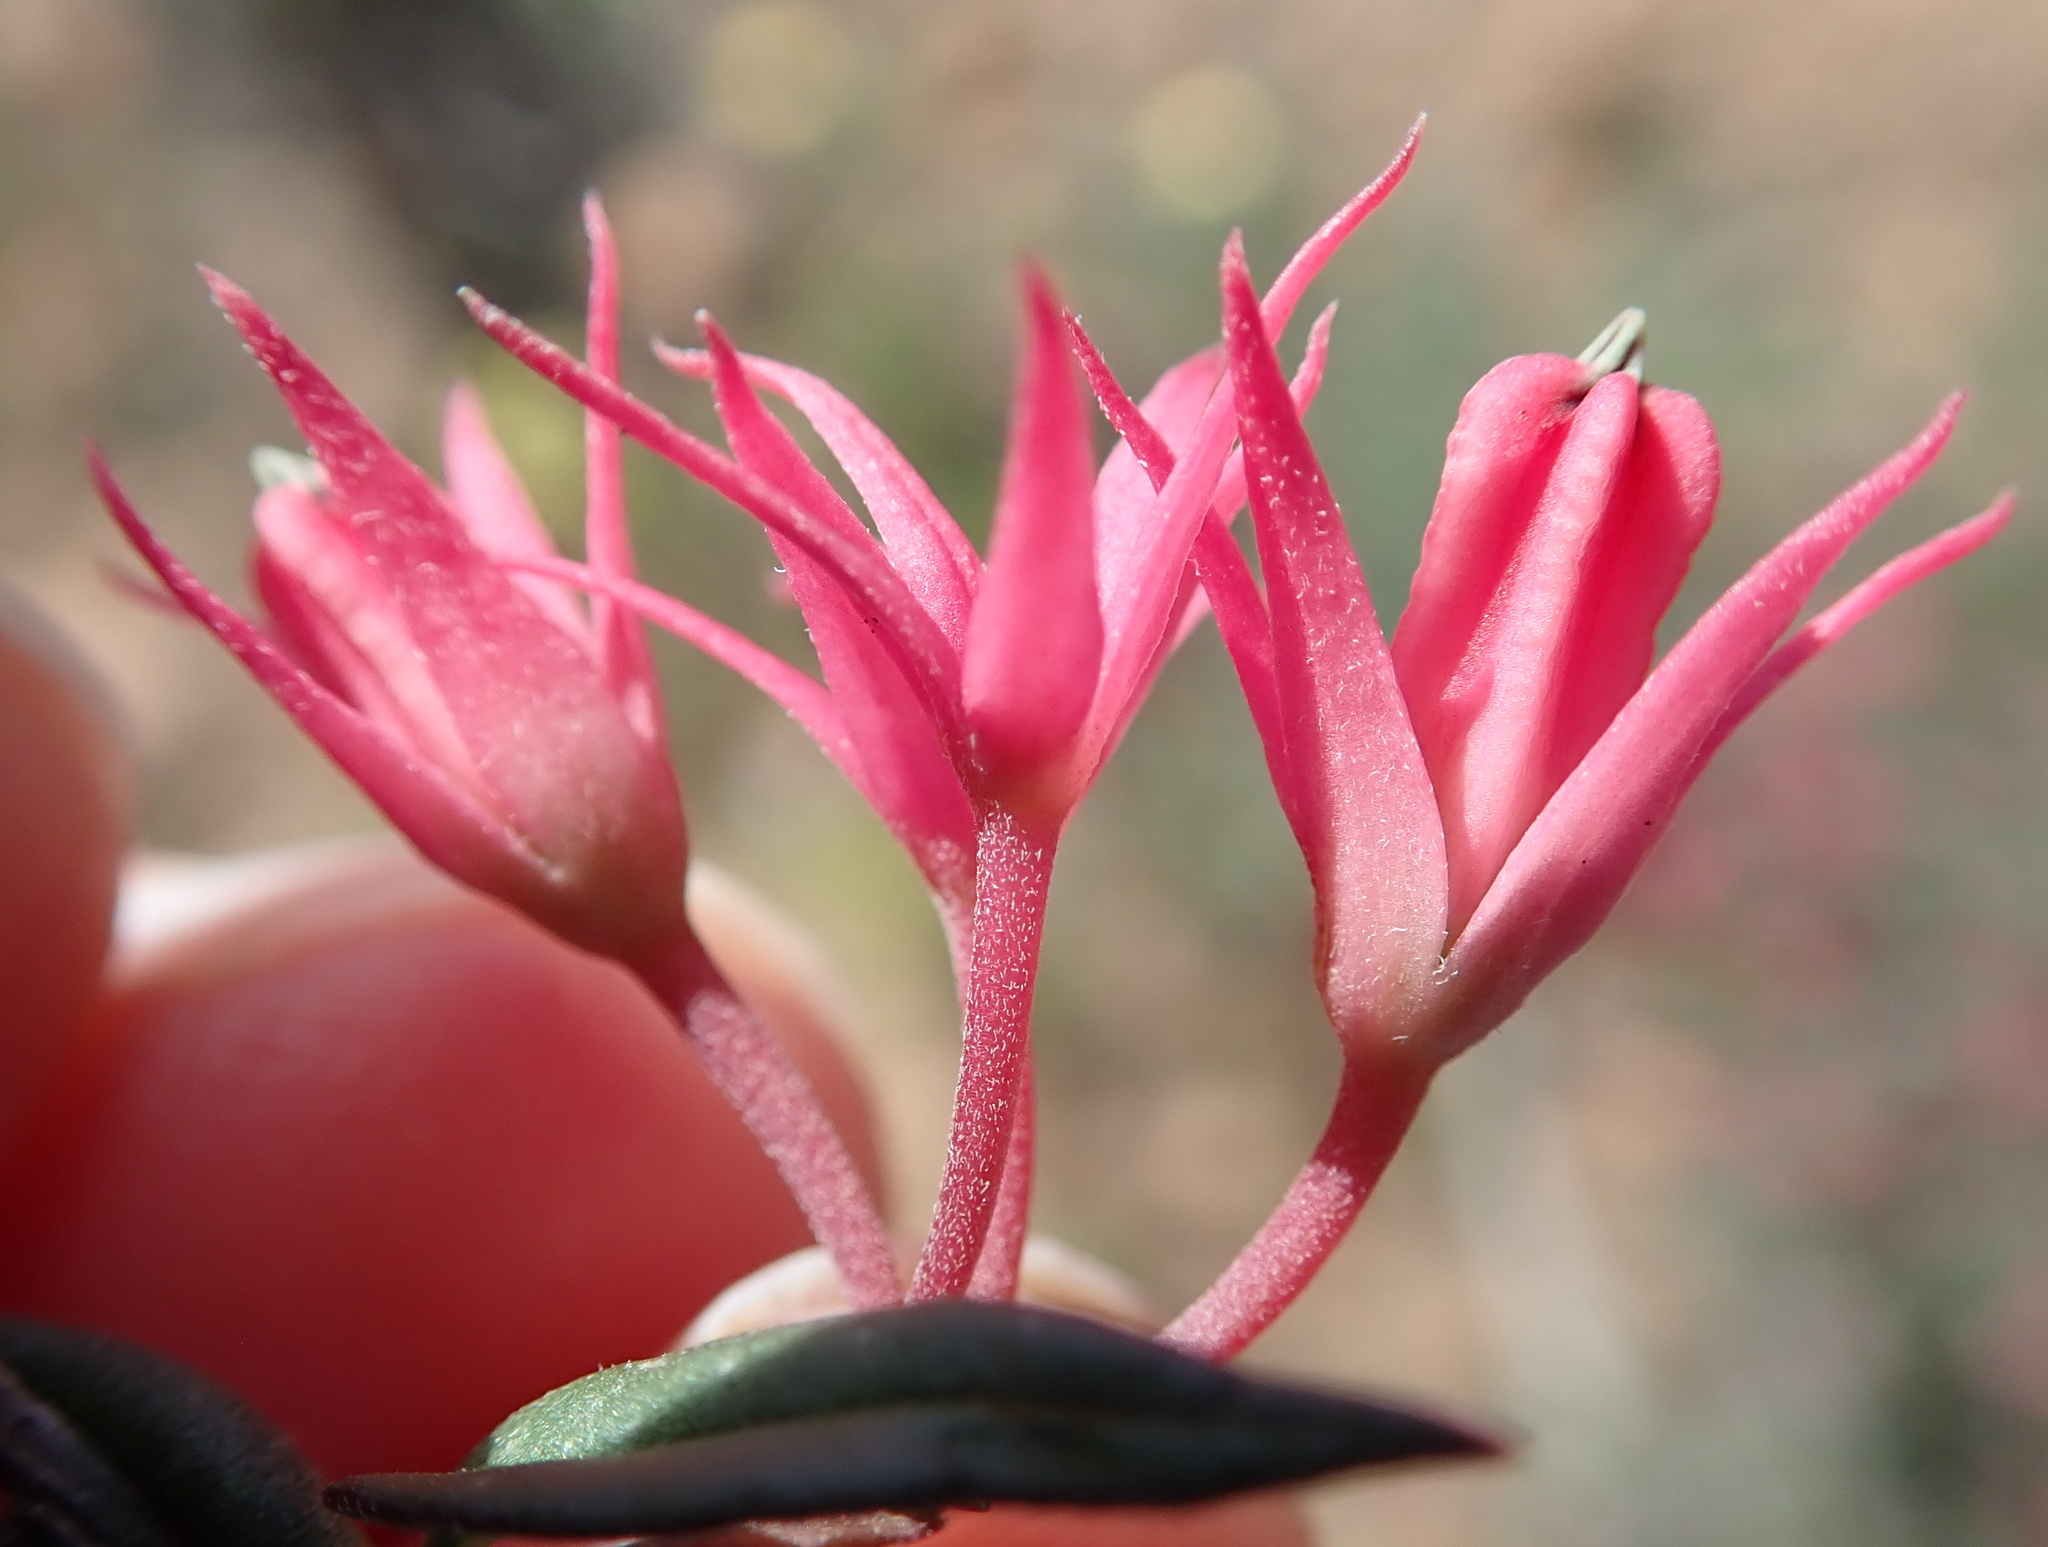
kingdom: Plantae
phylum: Tracheophyta
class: Magnoliopsida
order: Gentianales
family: Apocynaceae
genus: Microloma
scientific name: Microloma sagittatum
